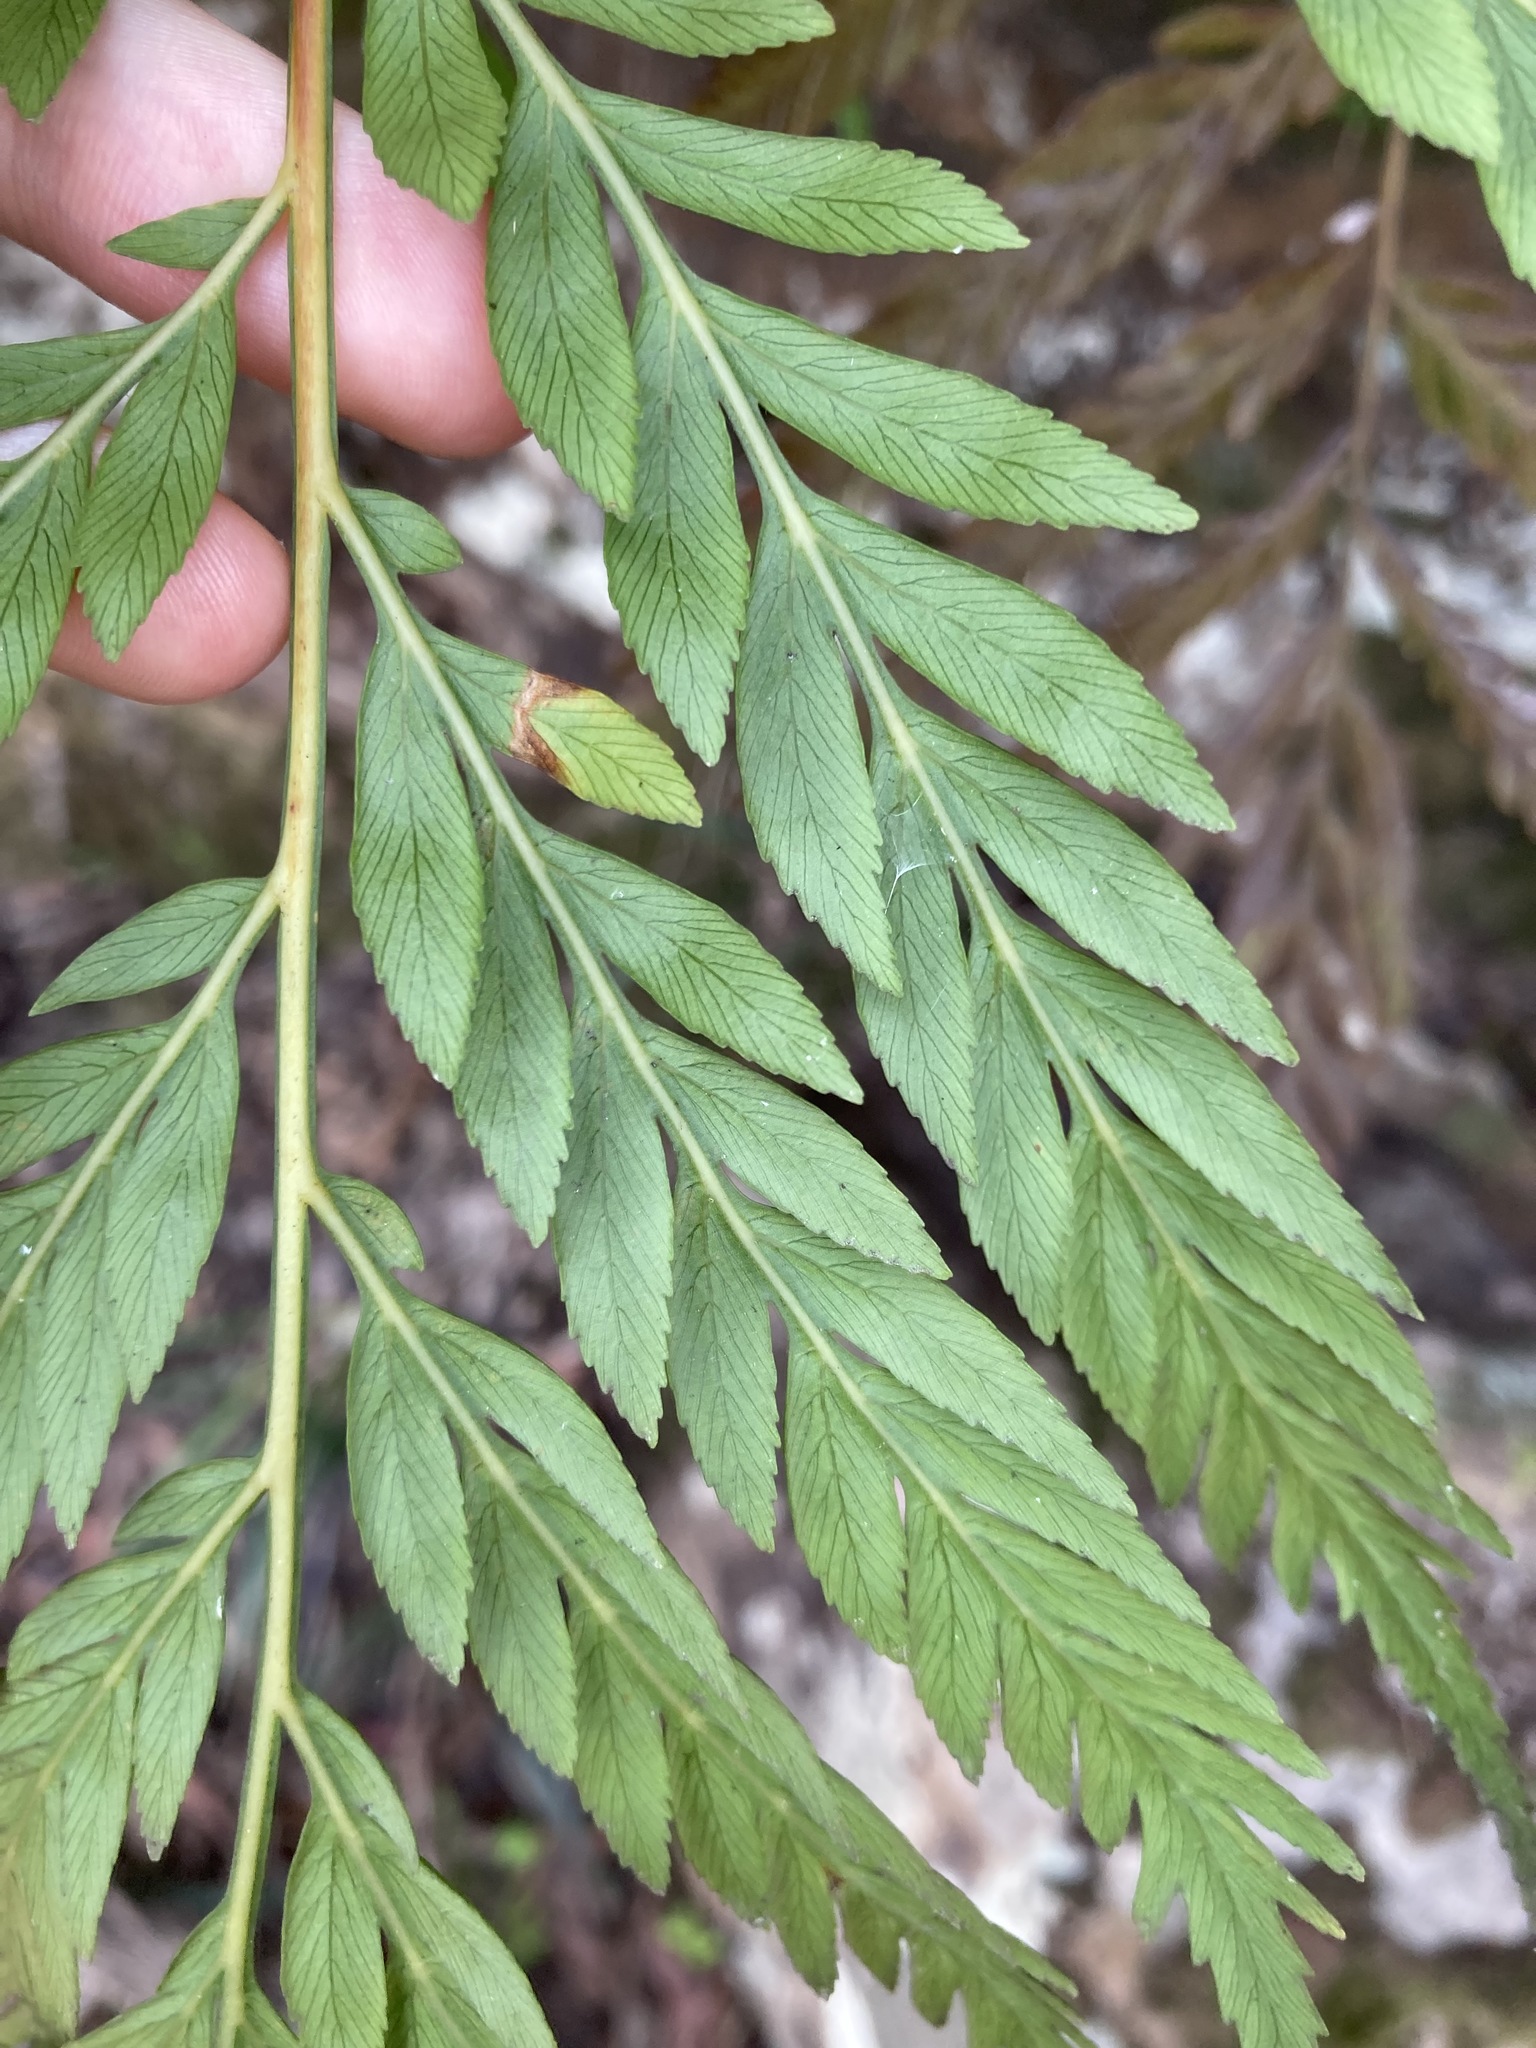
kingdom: Plantae
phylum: Tracheophyta
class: Polypodiopsida
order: Osmundales
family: Osmundaceae
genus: Todea
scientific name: Todea barbara
